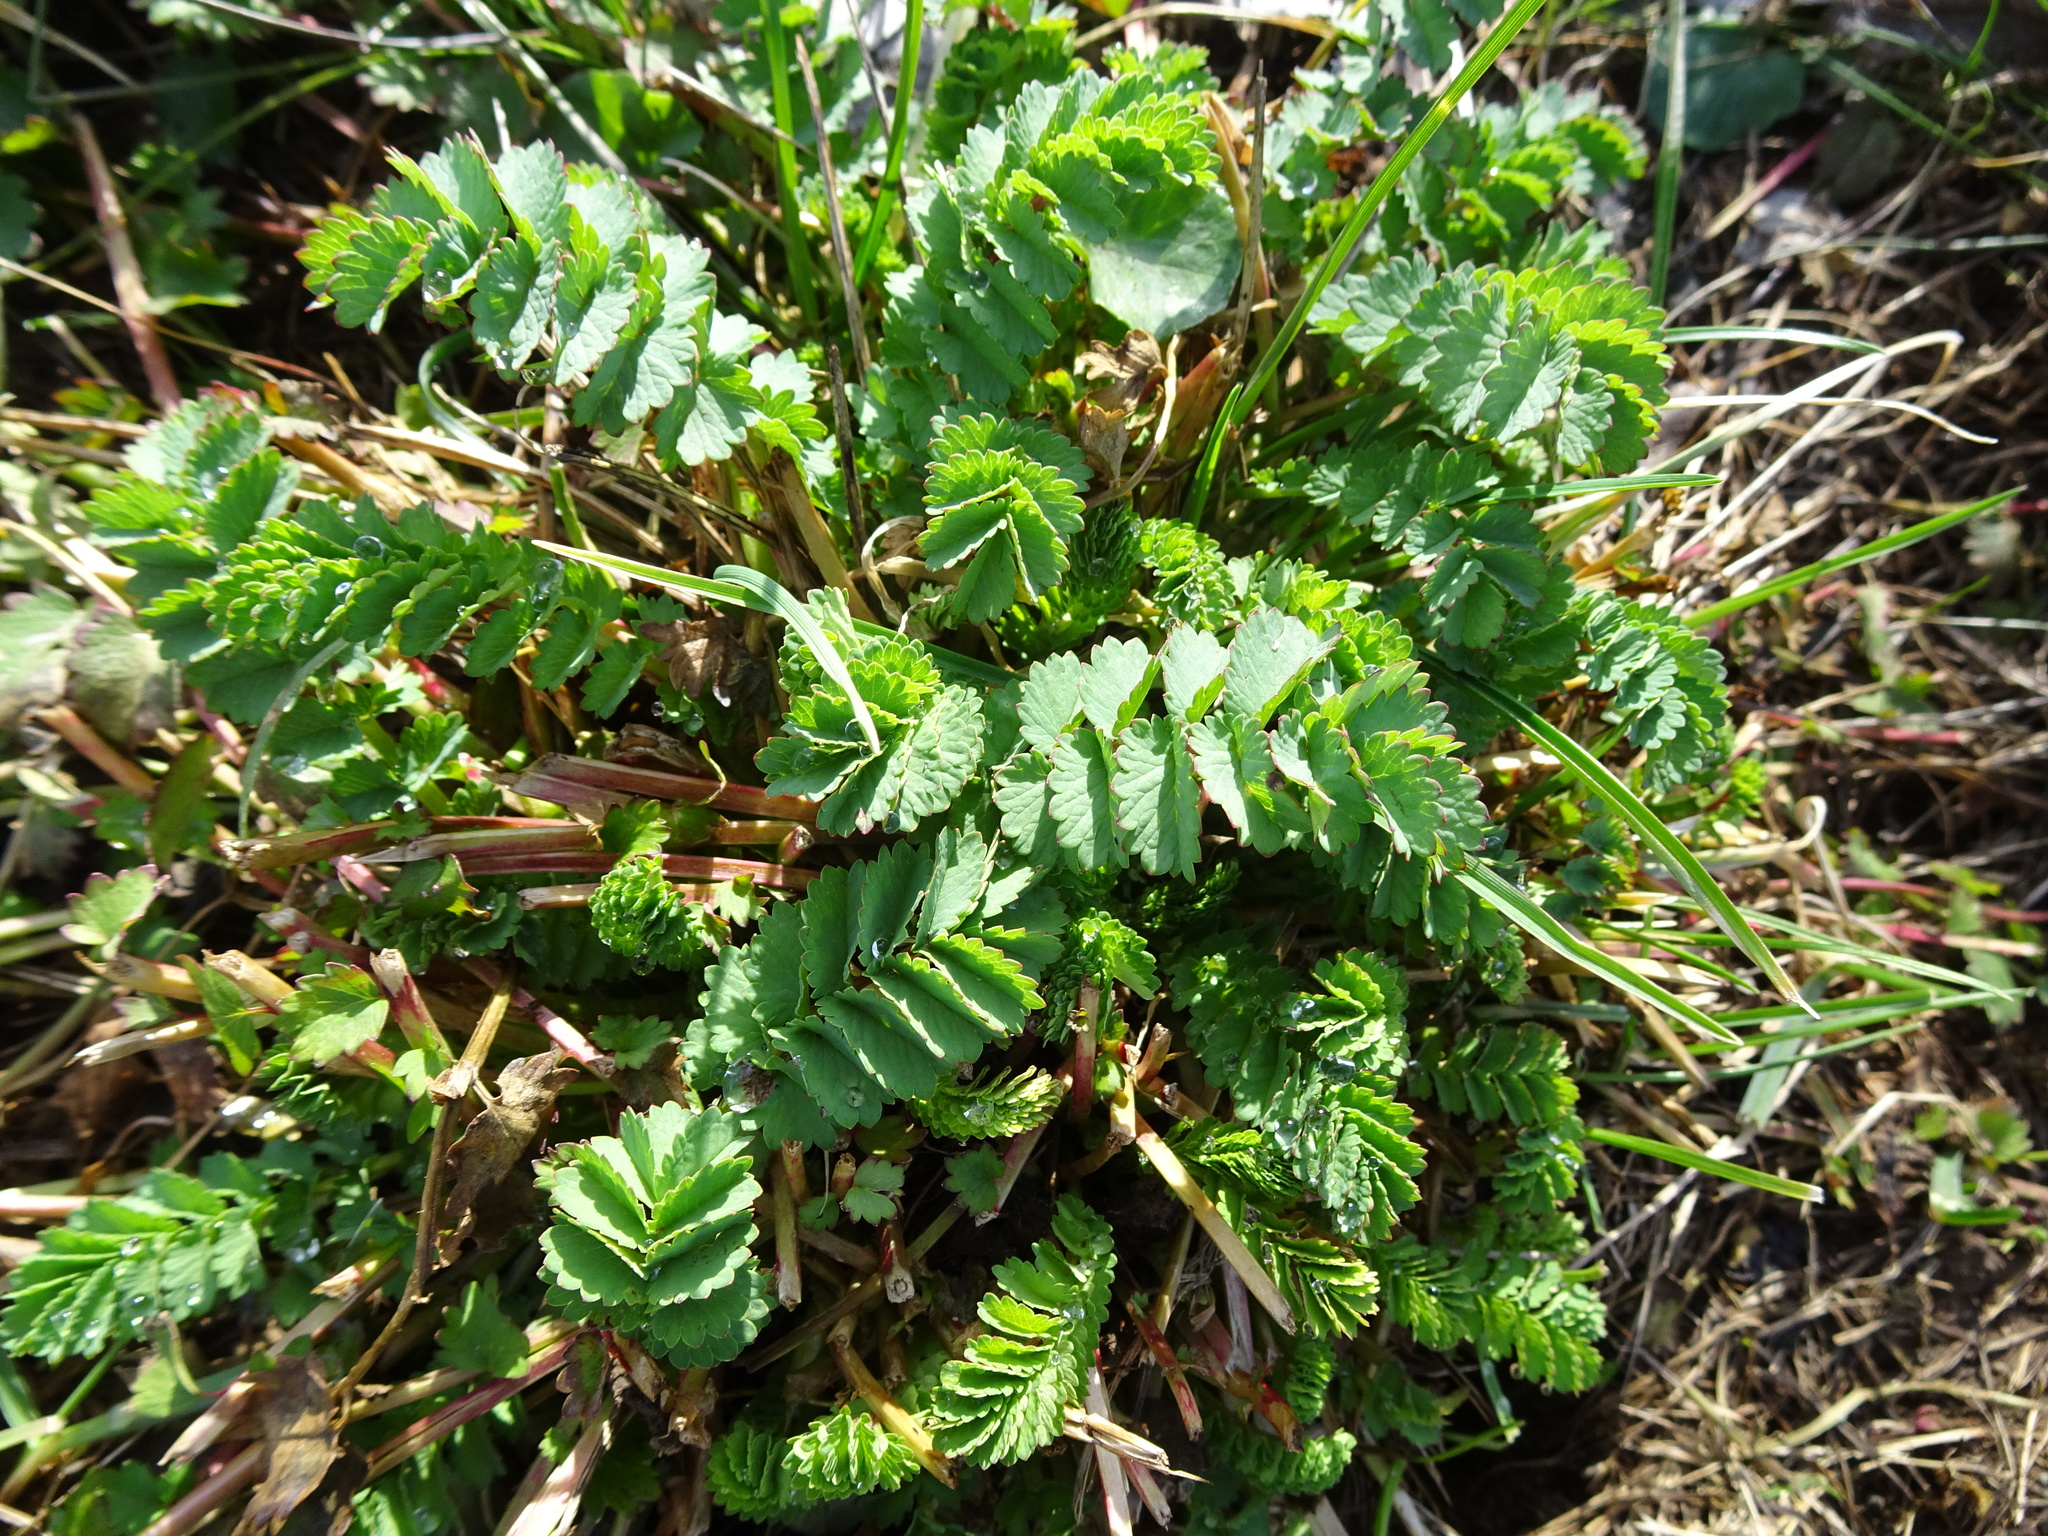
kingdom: Plantae
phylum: Tracheophyta
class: Magnoliopsida
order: Rosales
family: Rosaceae
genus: Poterium
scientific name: Poterium sanguisorba
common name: Salad burnet
